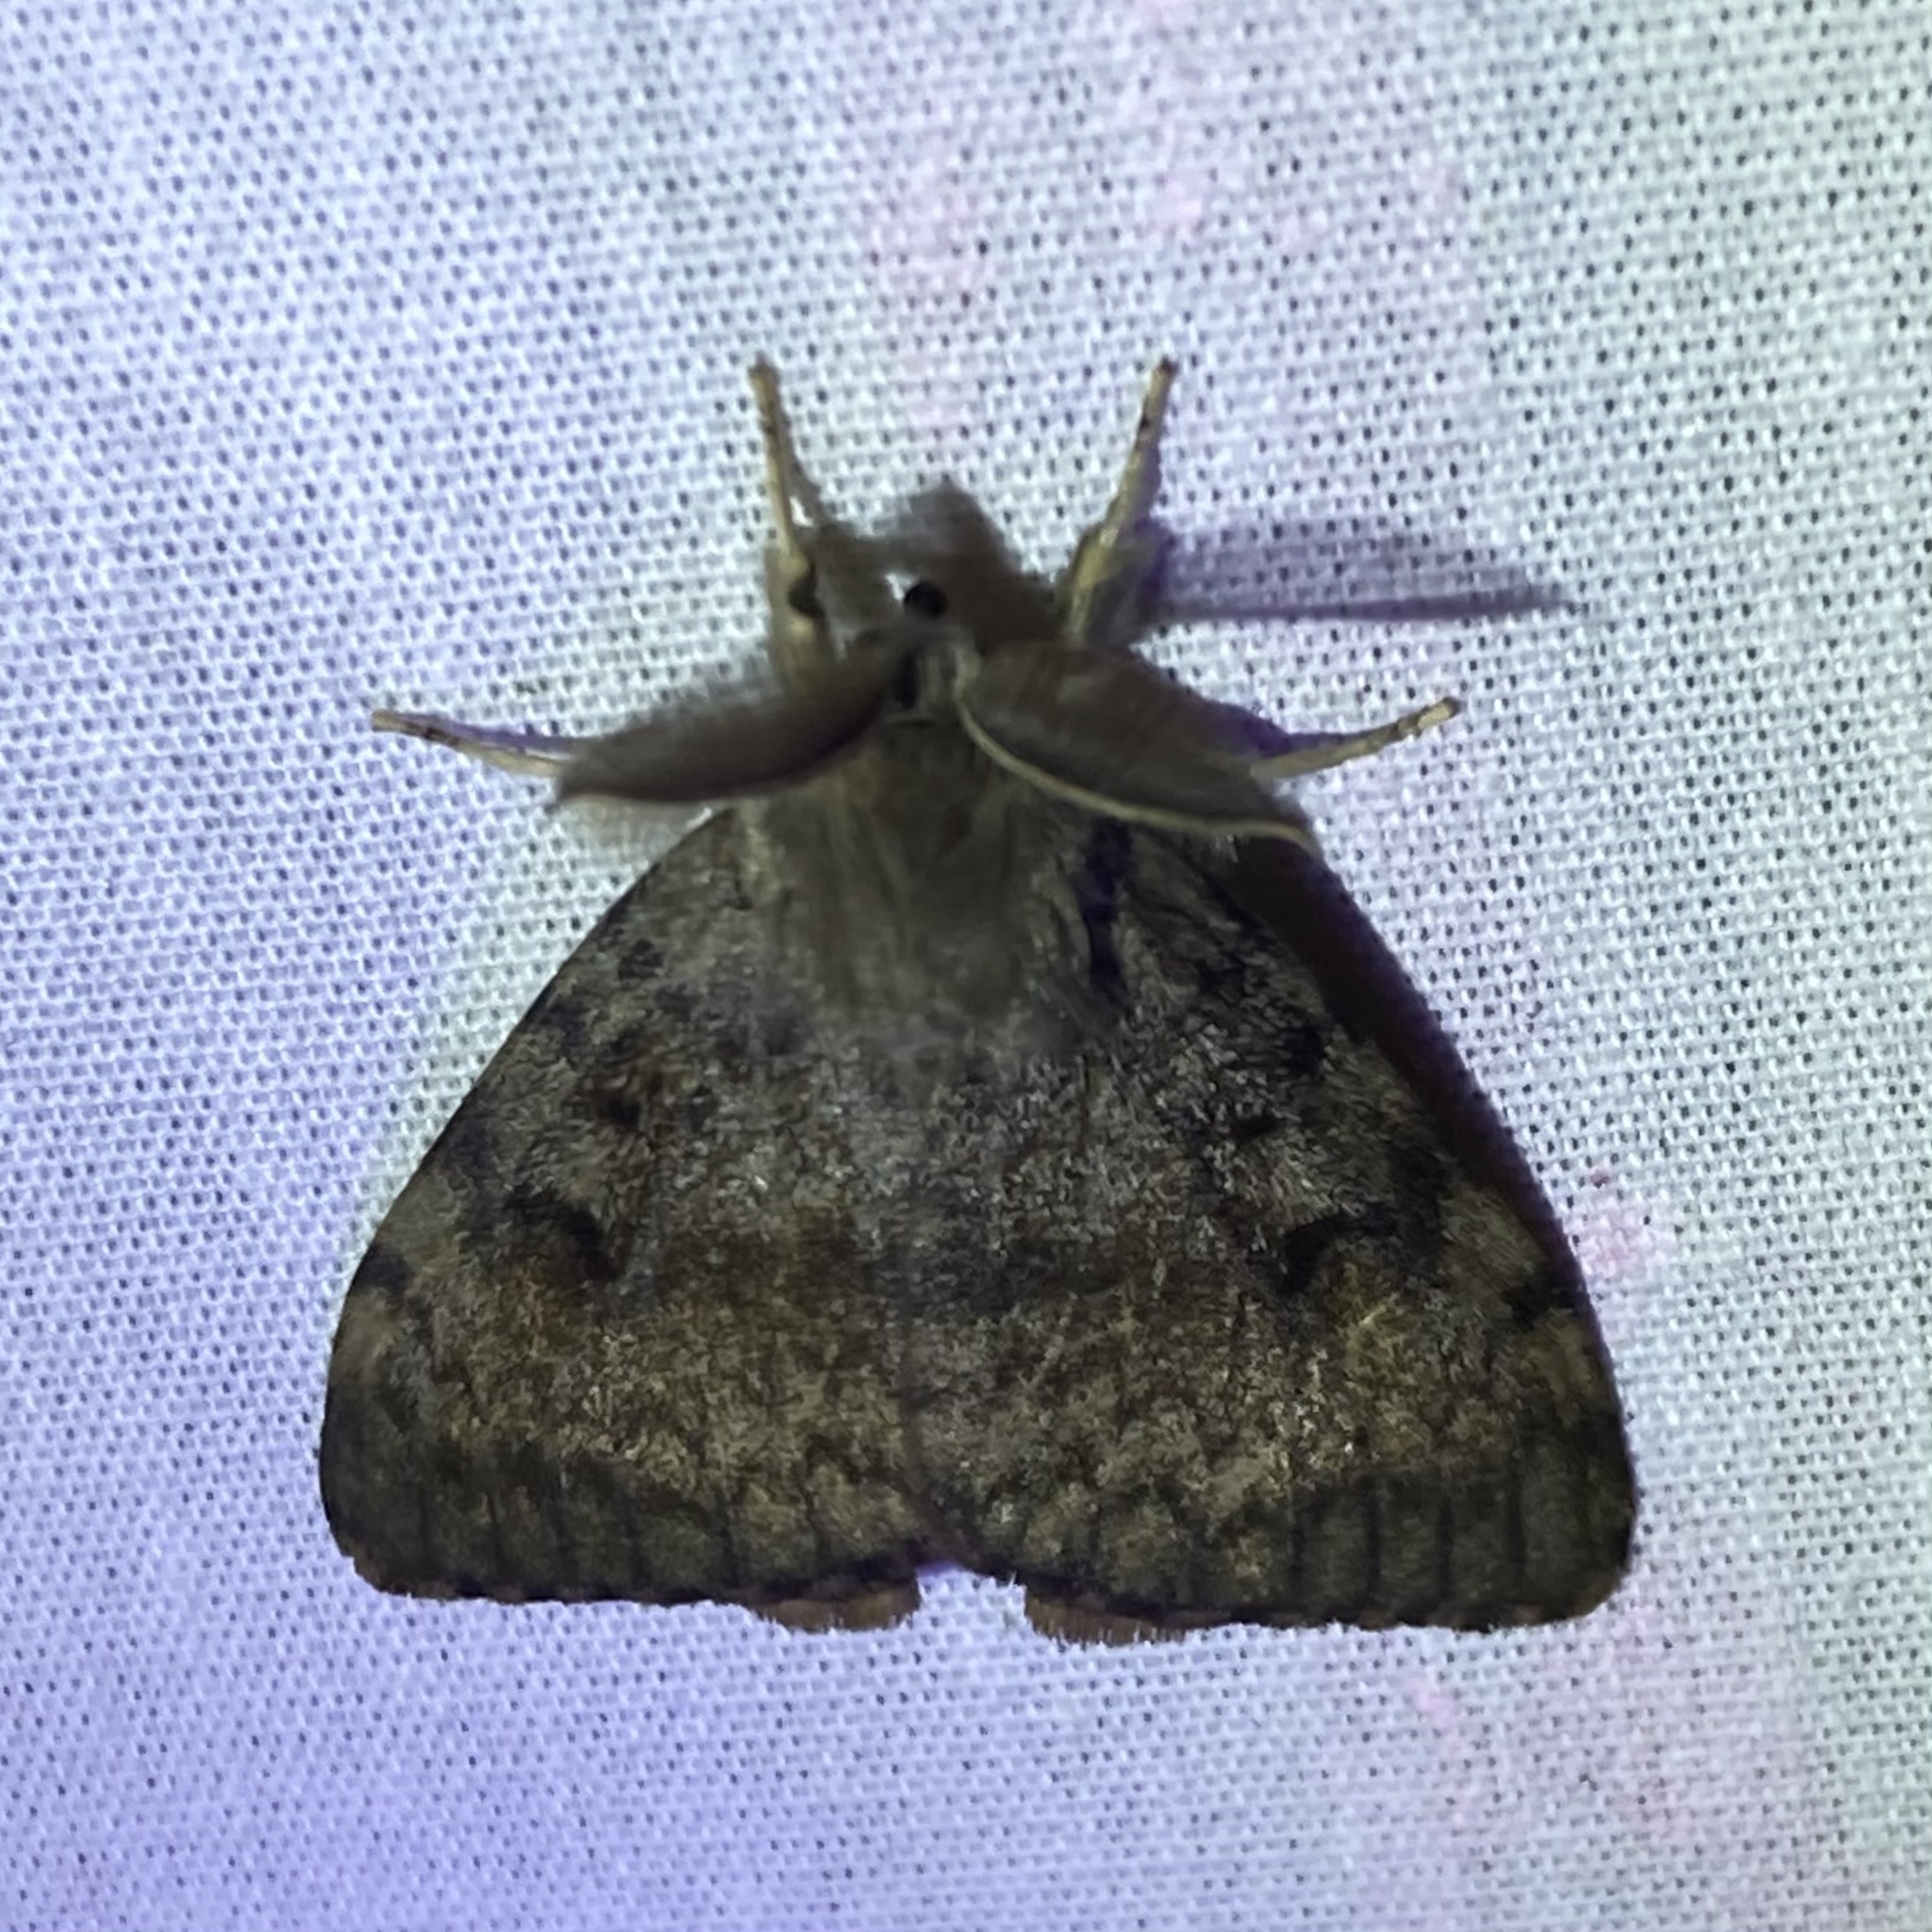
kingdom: Animalia
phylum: Arthropoda
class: Insecta
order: Lepidoptera
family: Erebidae
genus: Lymantria
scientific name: Lymantria dispar
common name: Gypsy moth
